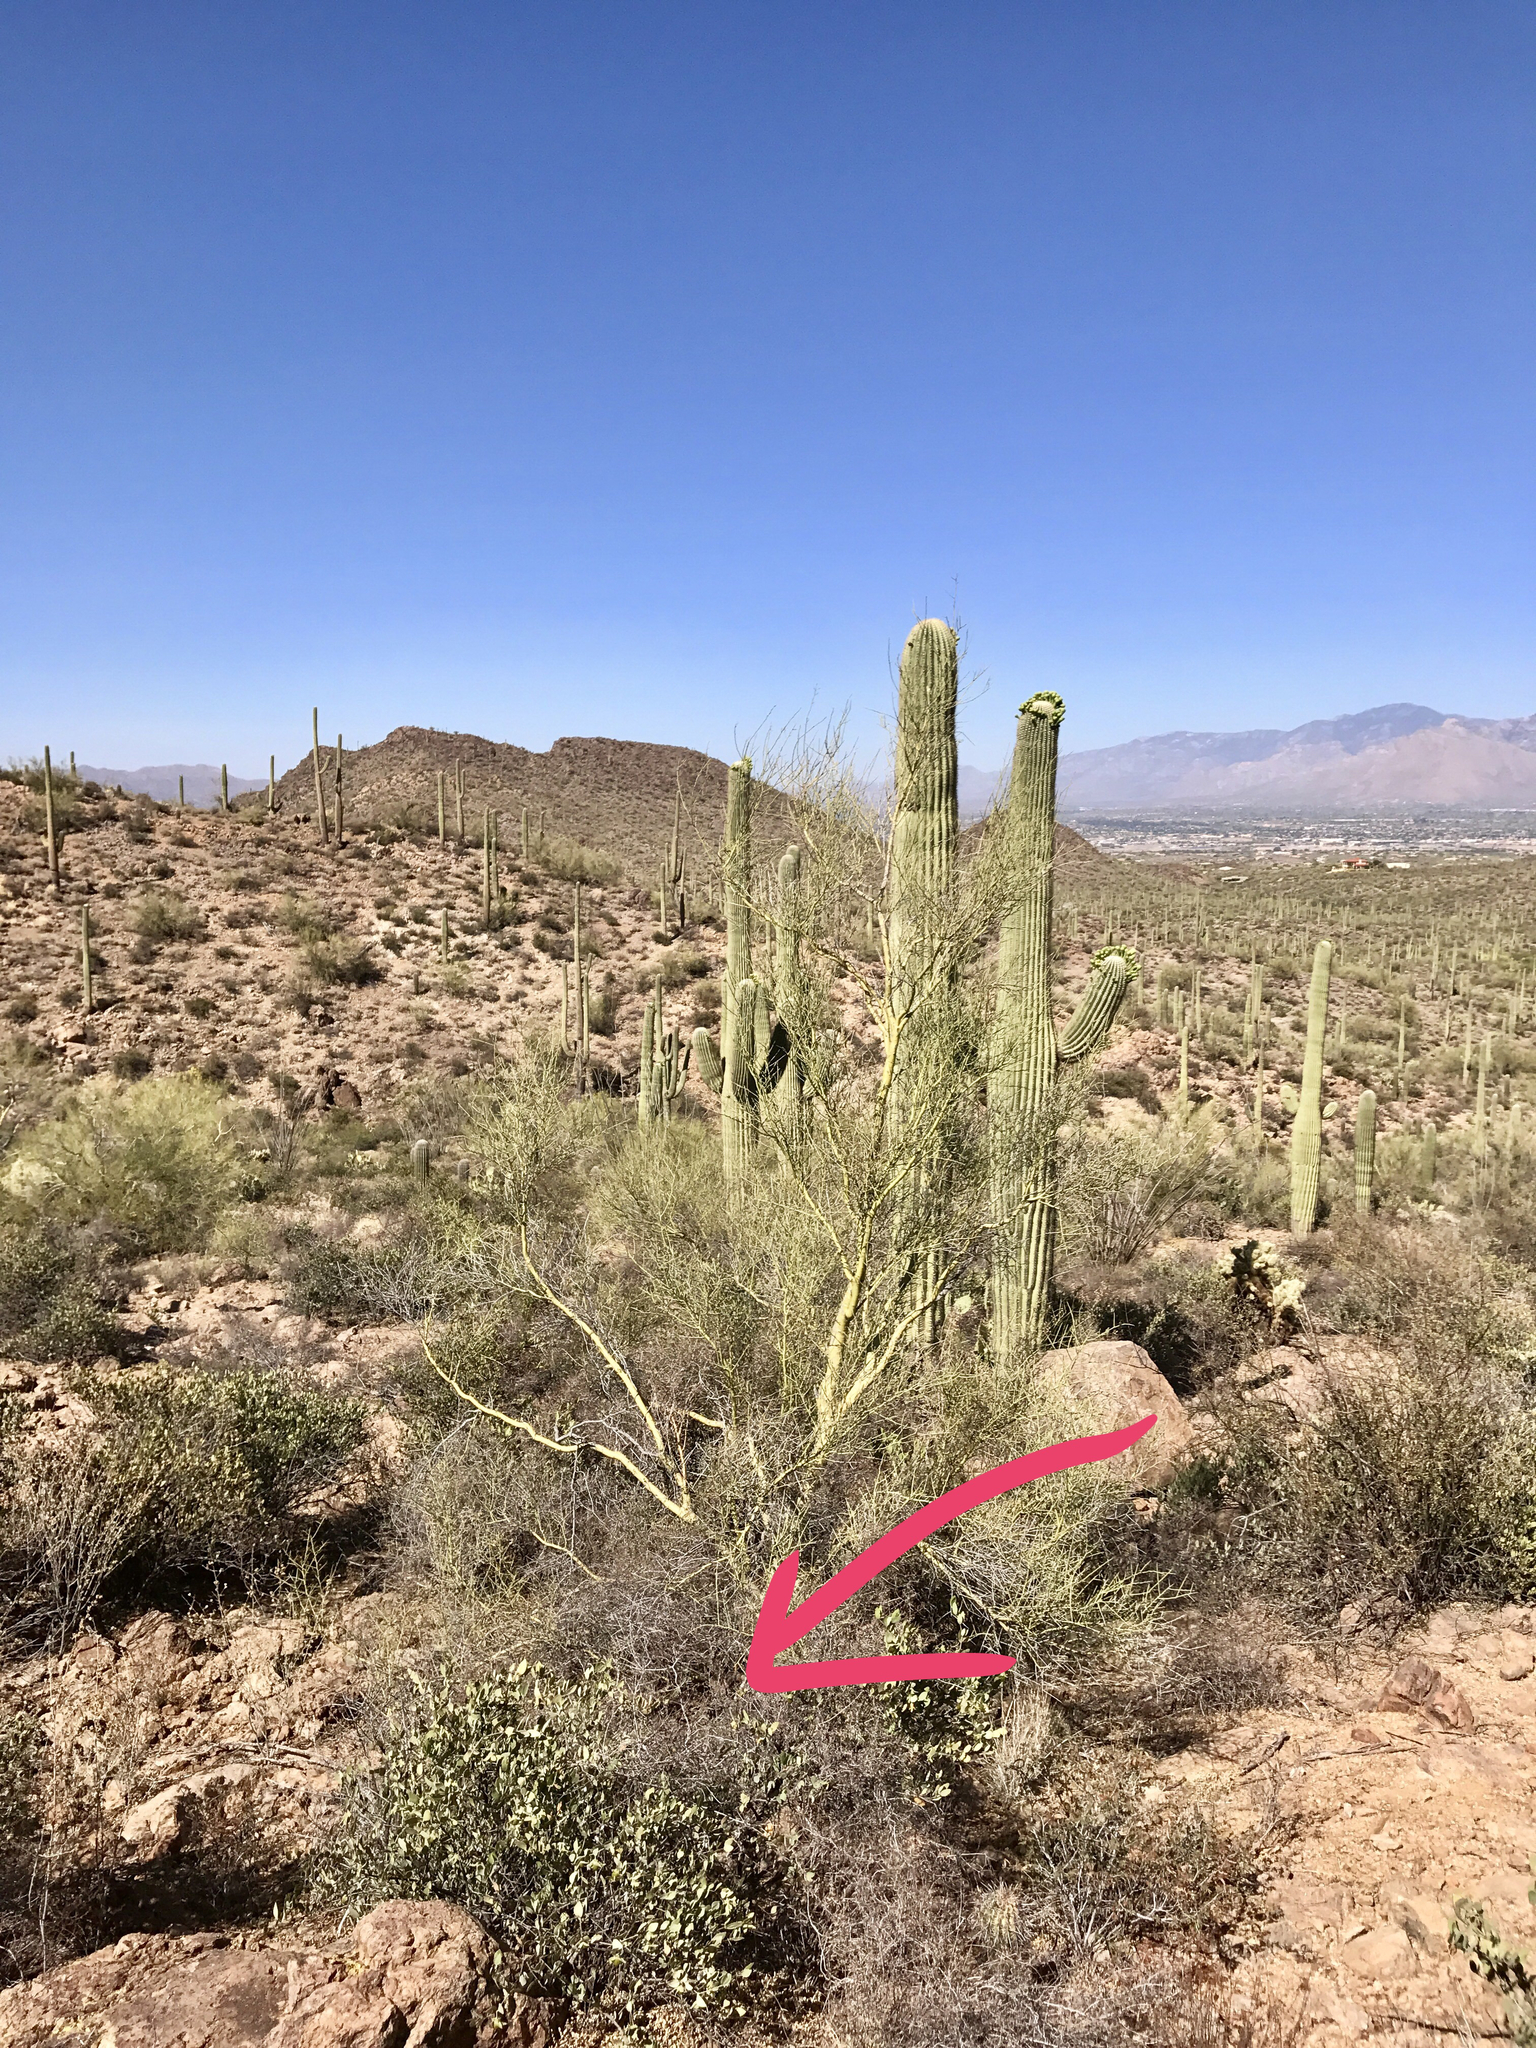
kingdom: Plantae
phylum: Tracheophyta
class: Magnoliopsida
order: Caryophyllales
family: Simmondsiaceae
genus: Simmondsia
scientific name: Simmondsia chinensis
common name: Jojoba
